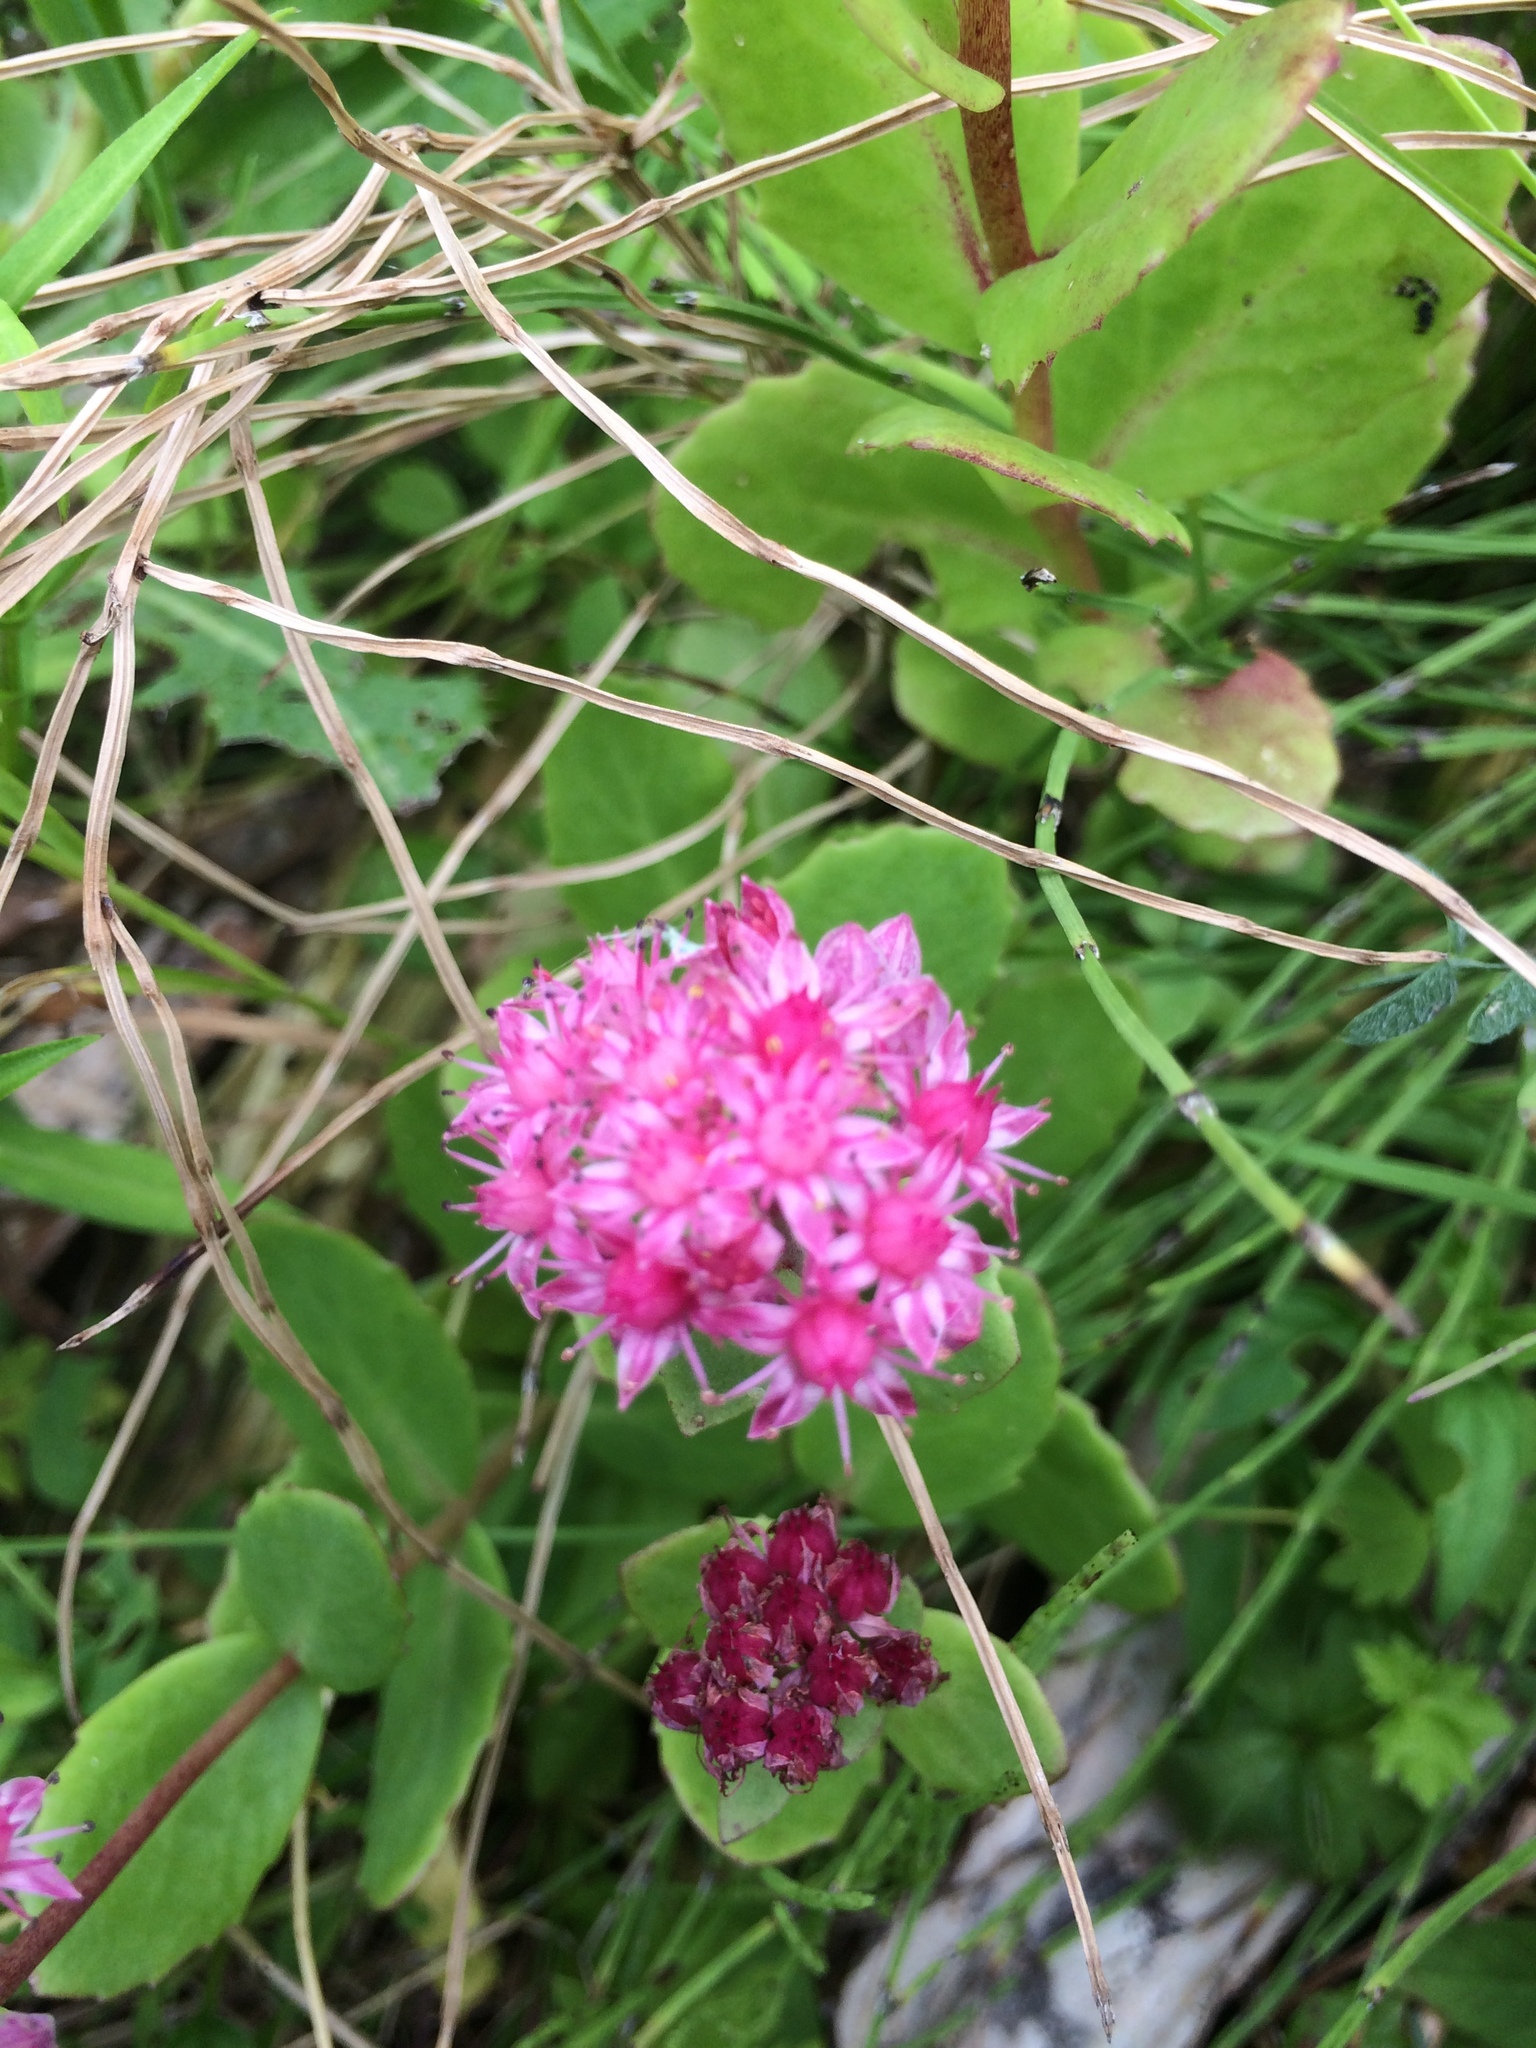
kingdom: Plantae
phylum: Tracheophyta
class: Magnoliopsida
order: Saxifragales
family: Crassulaceae
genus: Hylotelephium
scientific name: Hylotelephium telephium
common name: Live-forever
